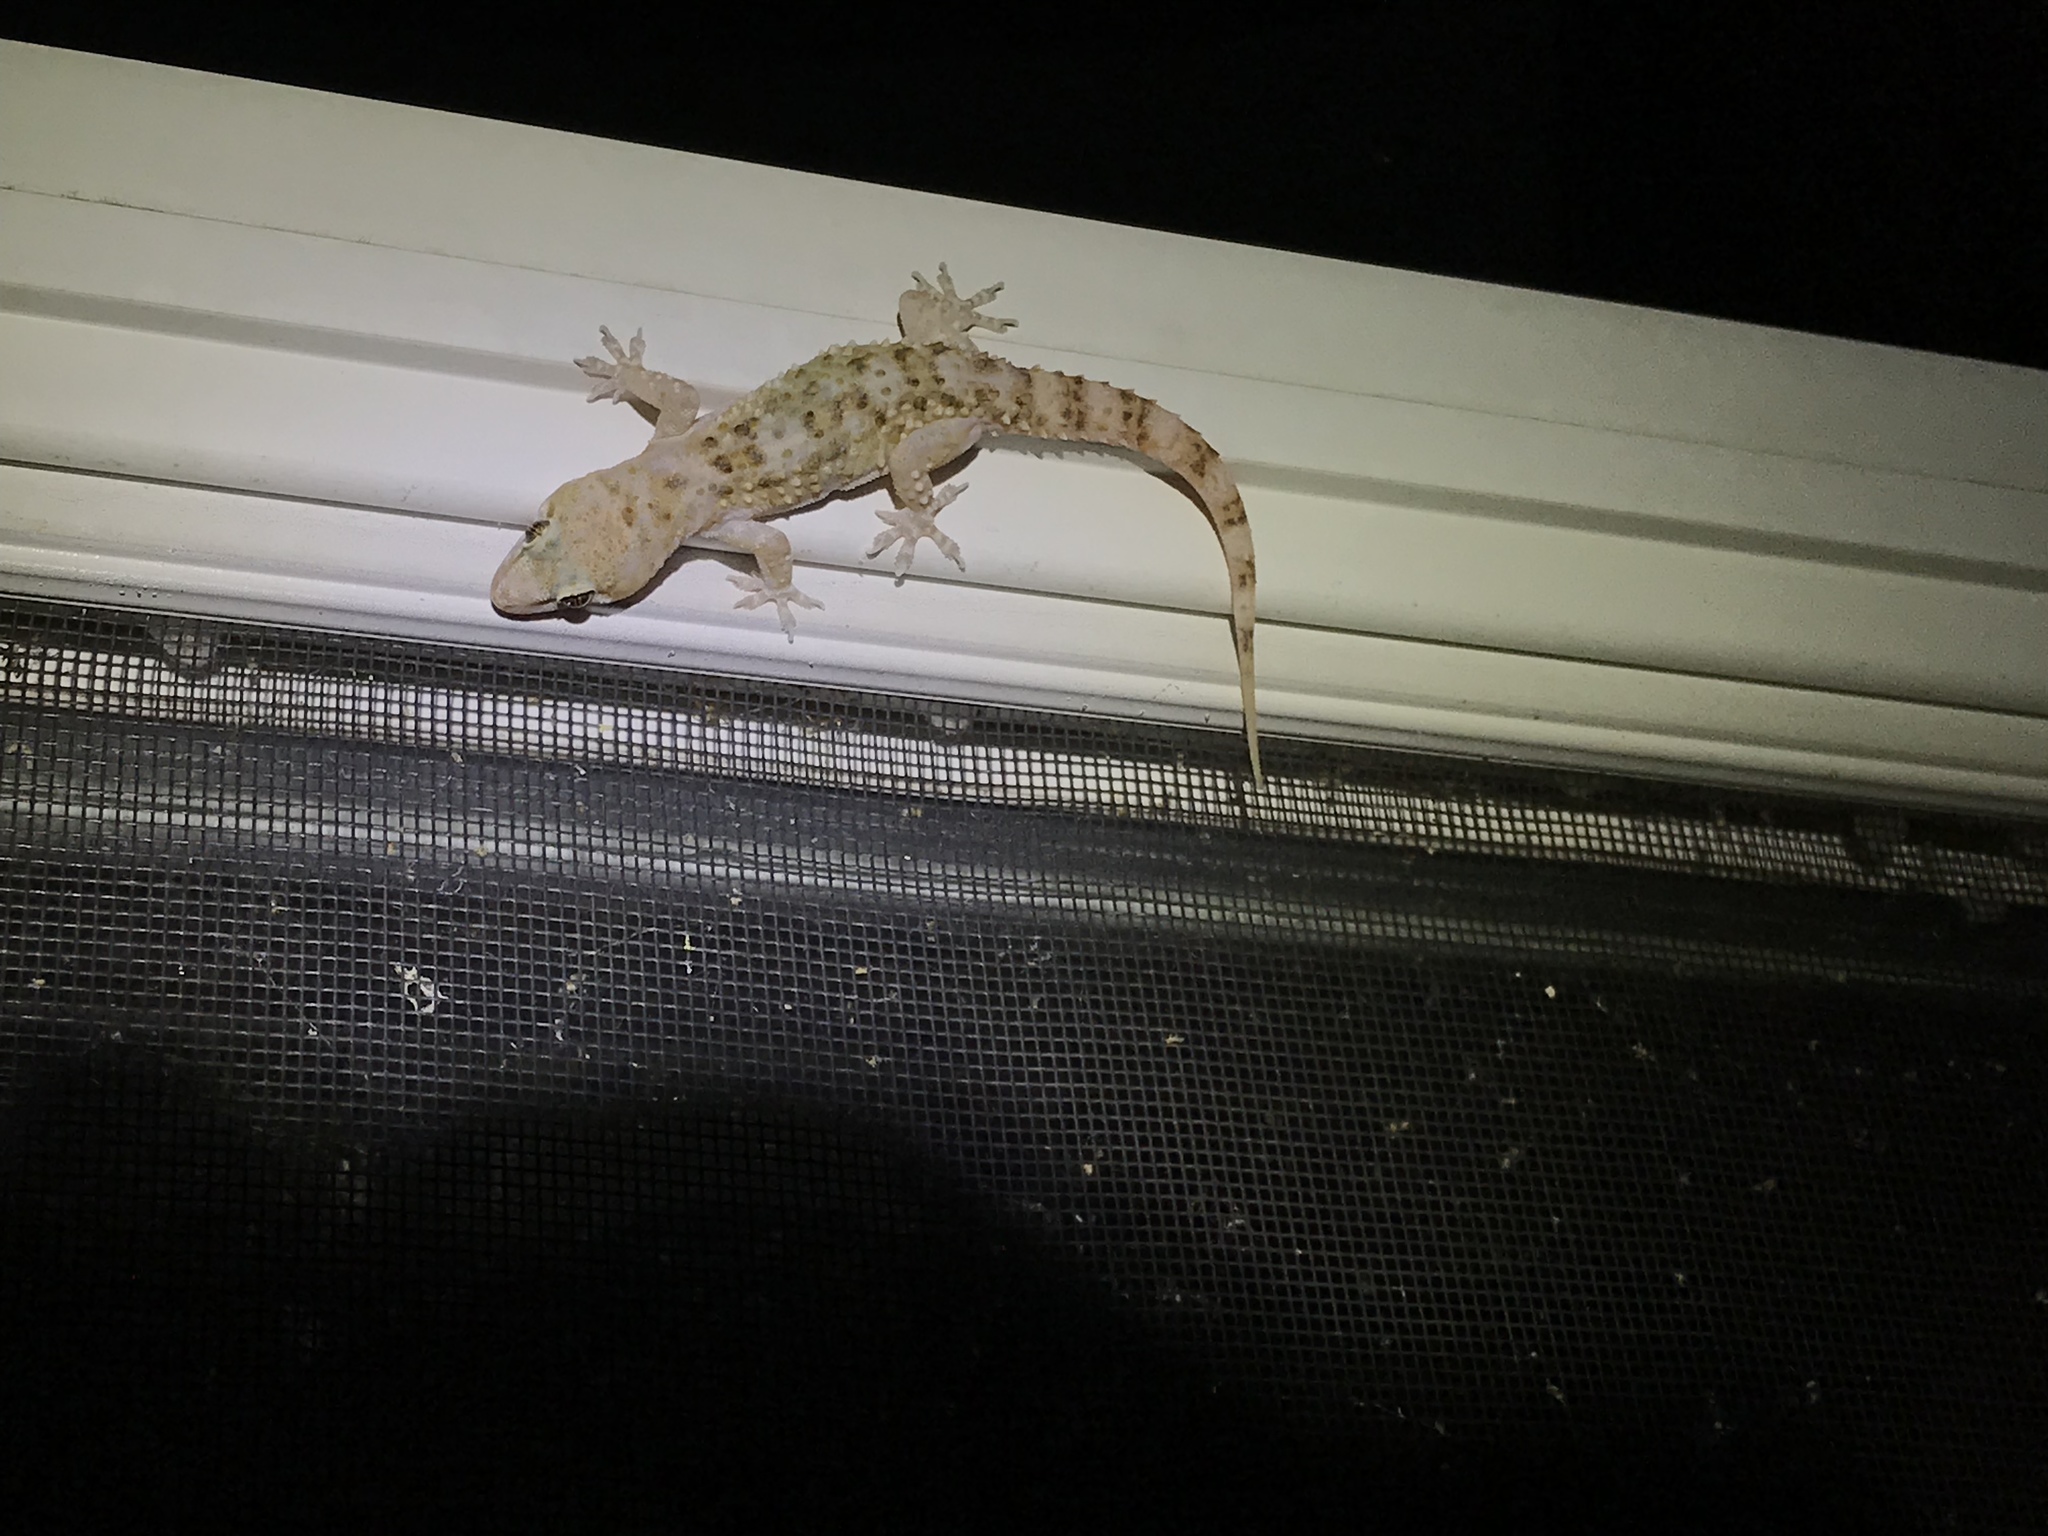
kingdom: Animalia
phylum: Chordata
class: Squamata
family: Gekkonidae
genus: Hemidactylus
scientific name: Hemidactylus turcicus
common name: Turkish gecko
